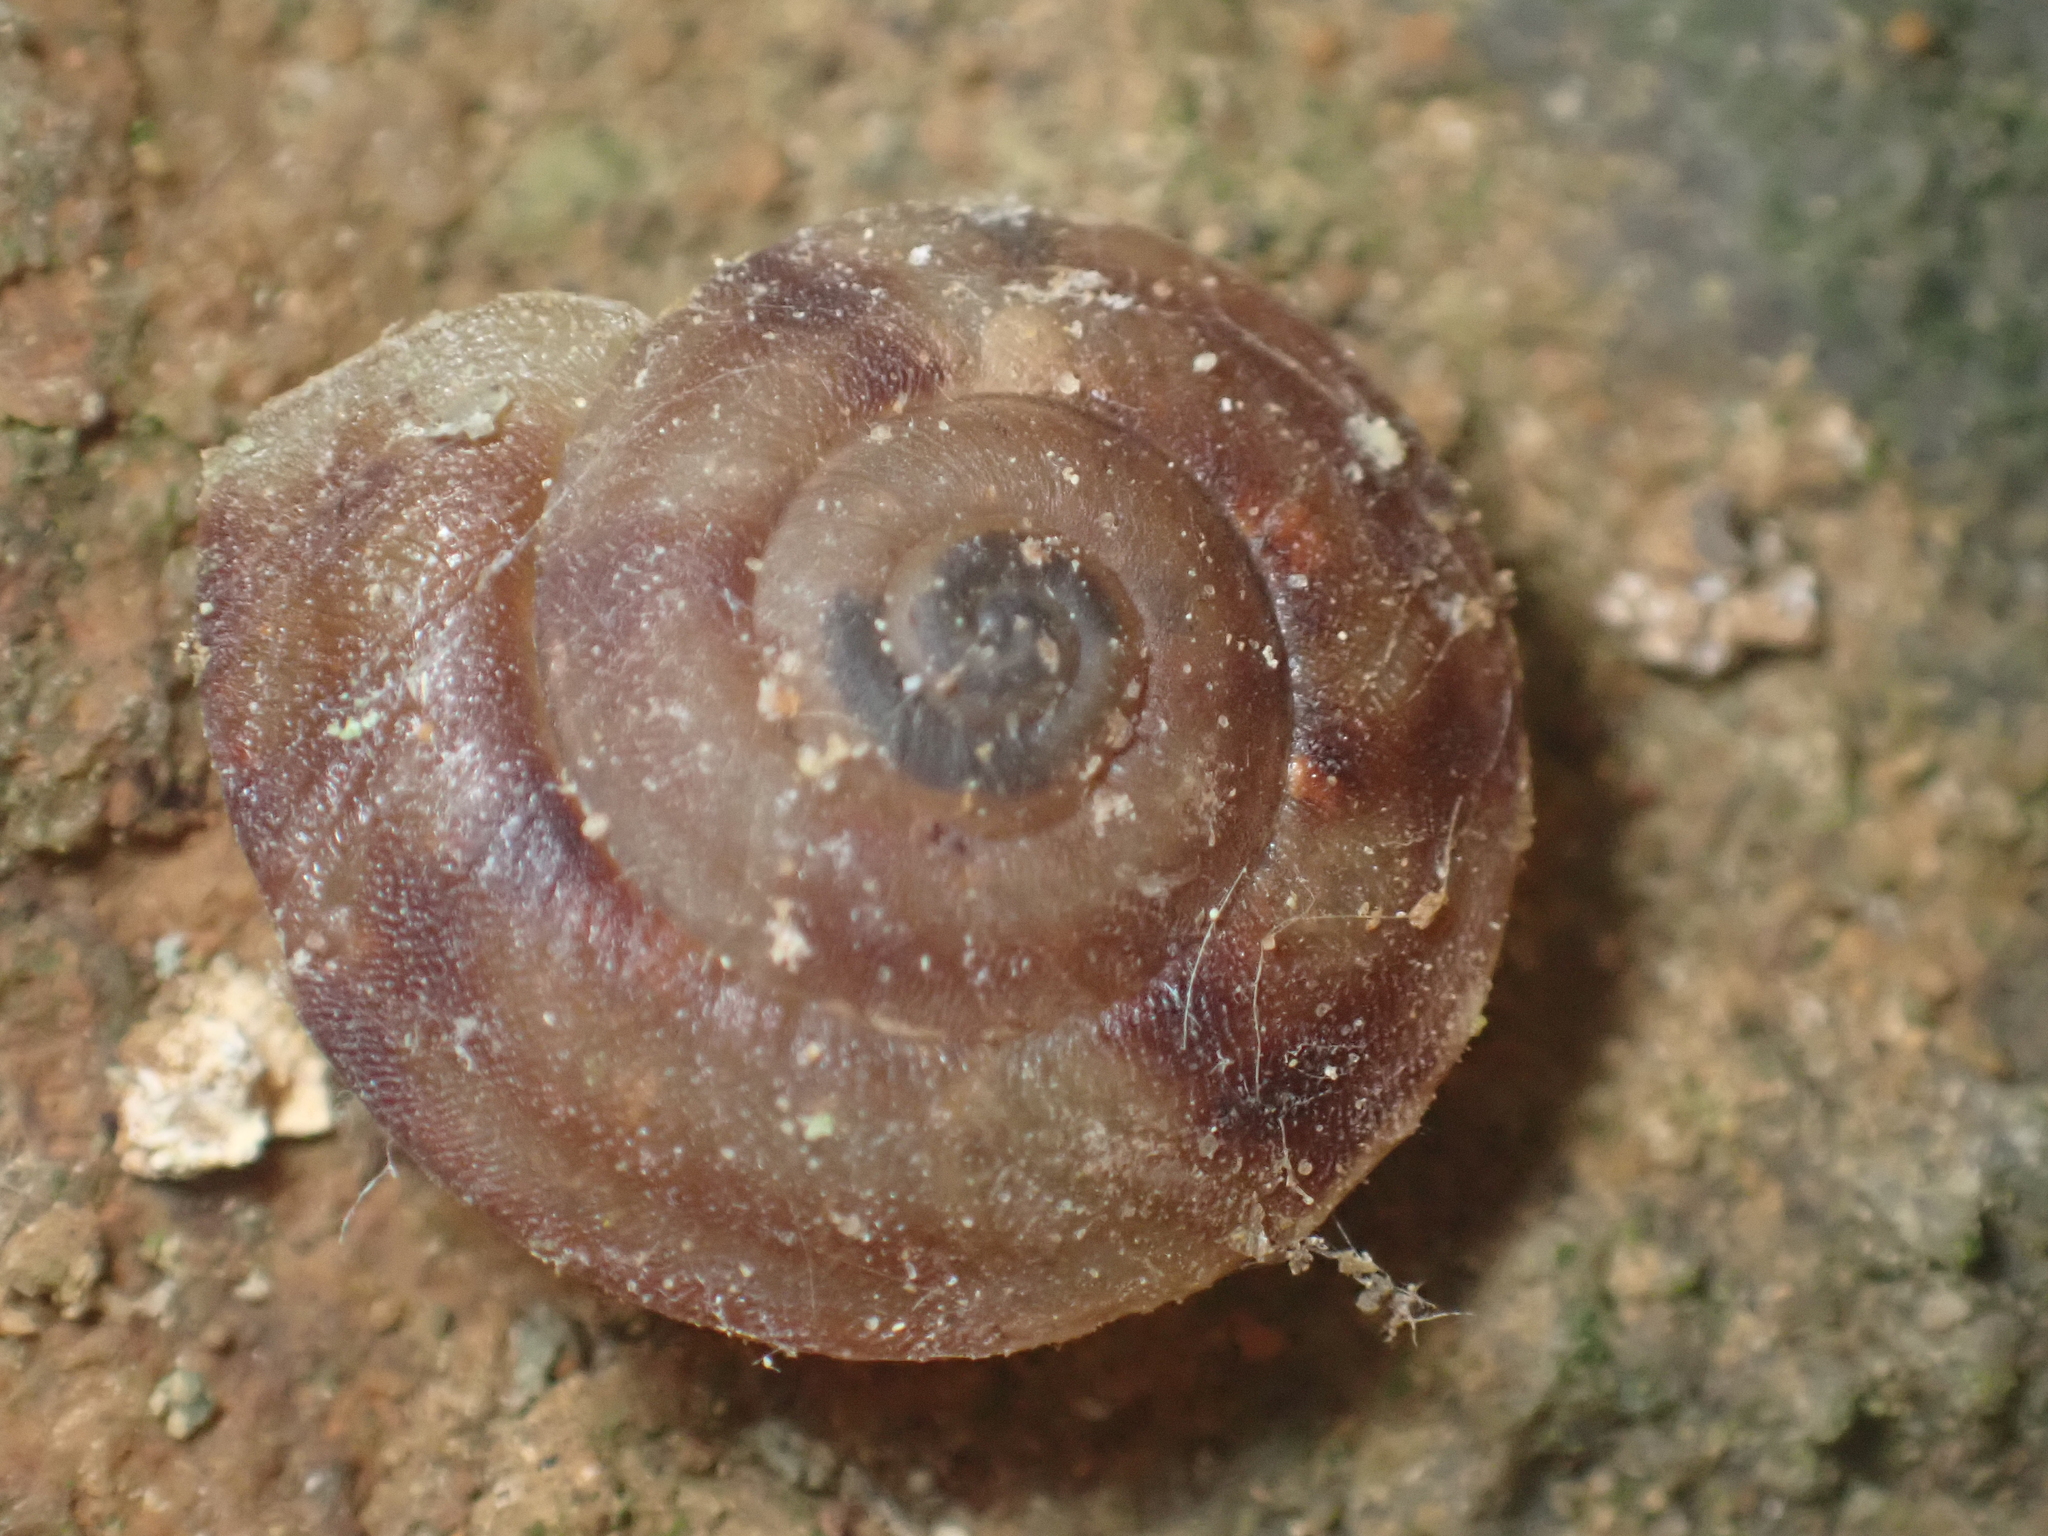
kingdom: Animalia
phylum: Mollusca
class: Gastropoda
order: Stylommatophora
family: Helicidae
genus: Helicigona
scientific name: Helicigona lapicida
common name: Lapidary snail
